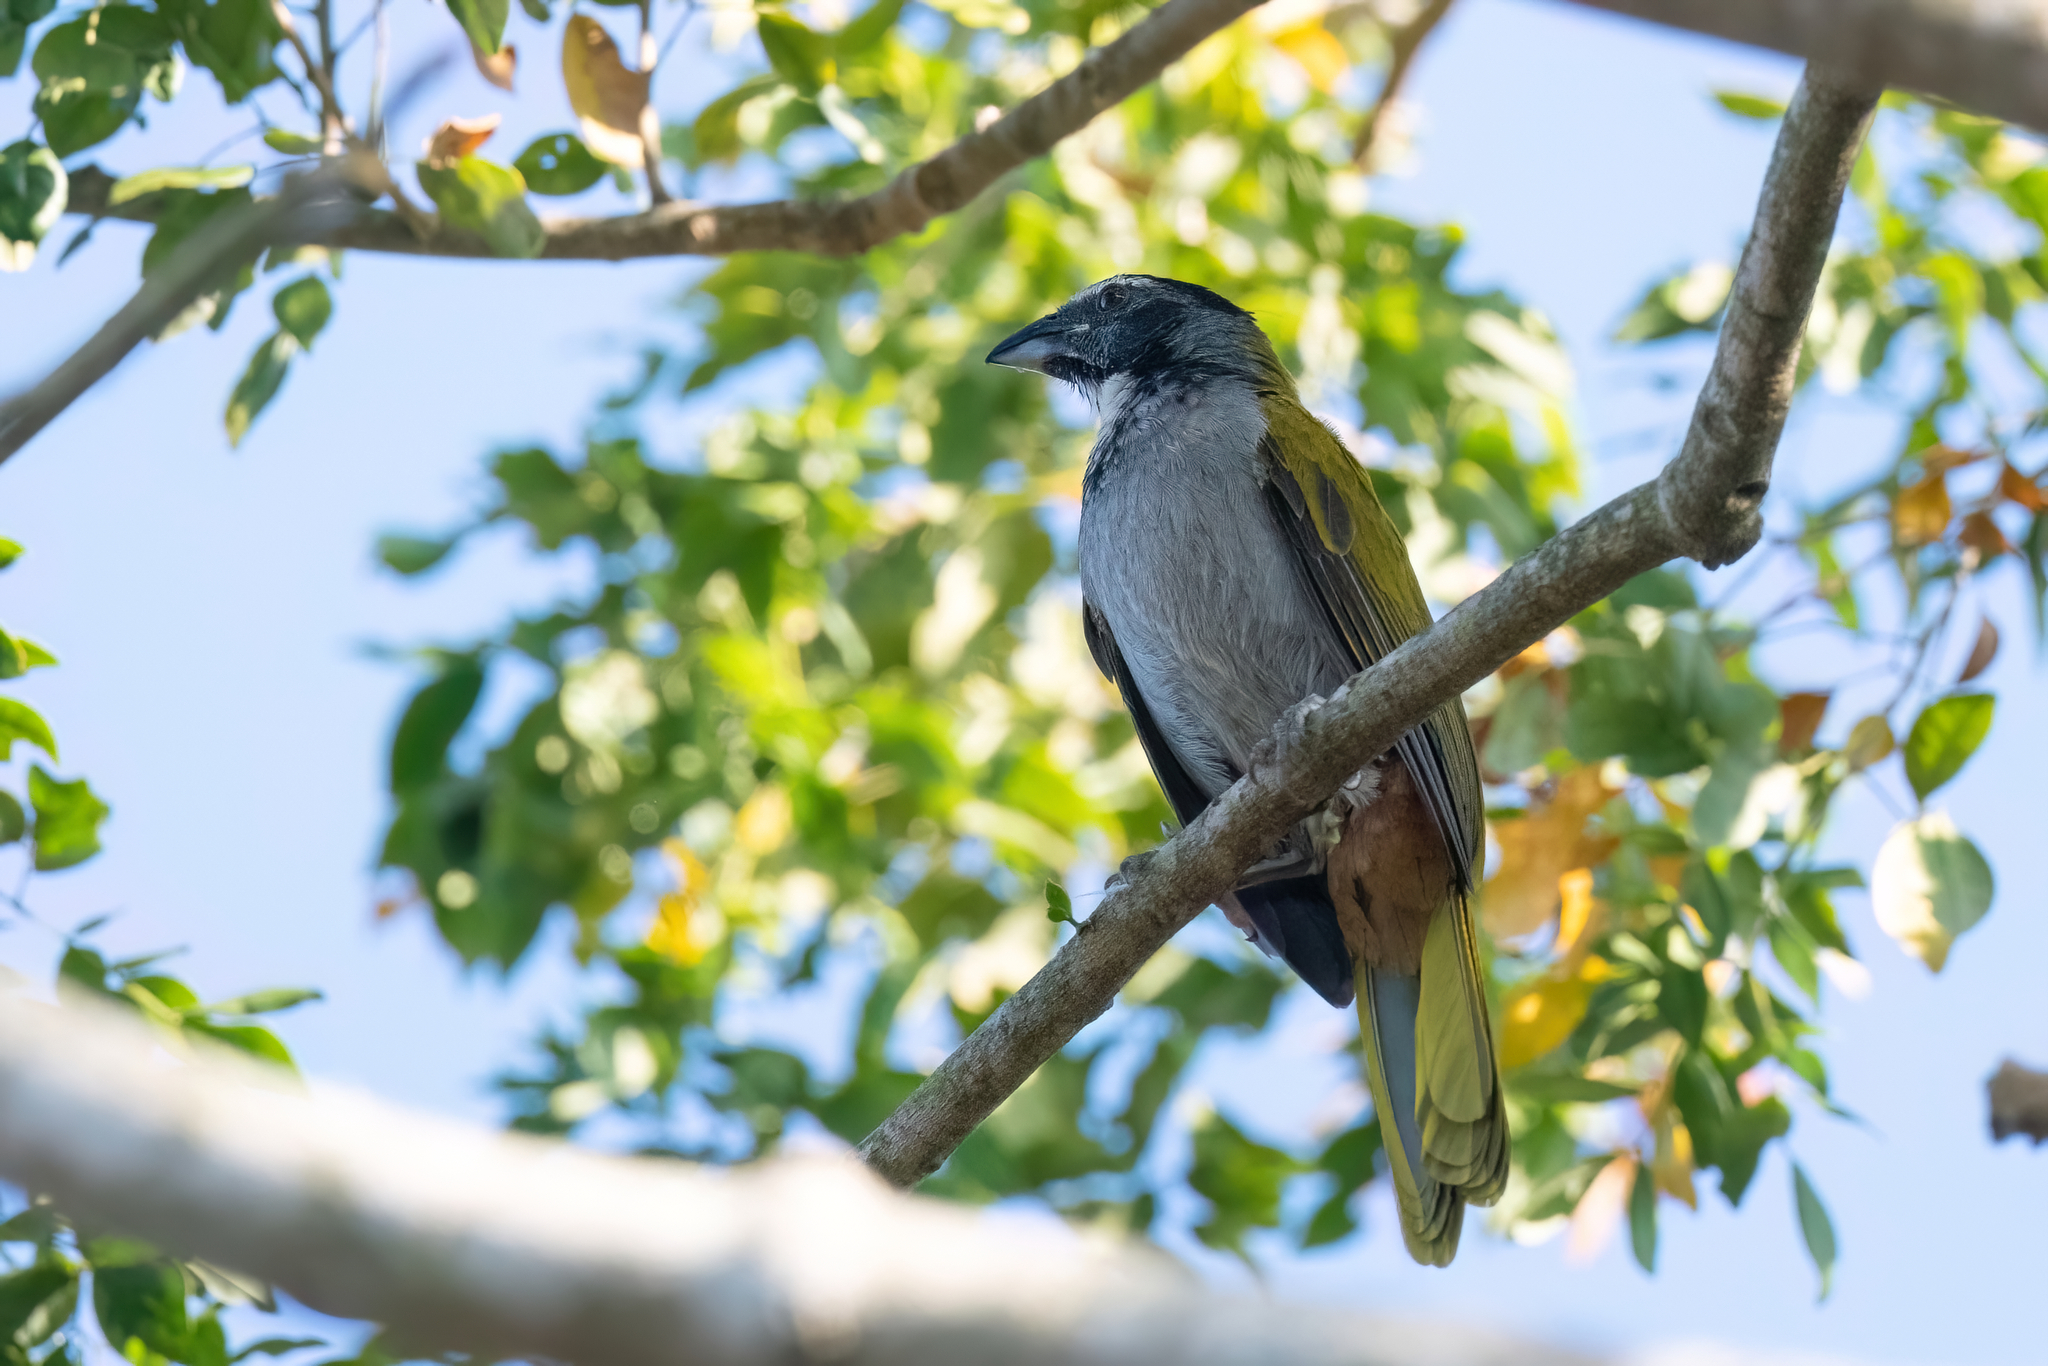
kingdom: Animalia
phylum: Chordata
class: Aves
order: Passeriformes
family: Thraupidae
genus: Saltator
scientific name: Saltator atriceps
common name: Black-headed saltator
